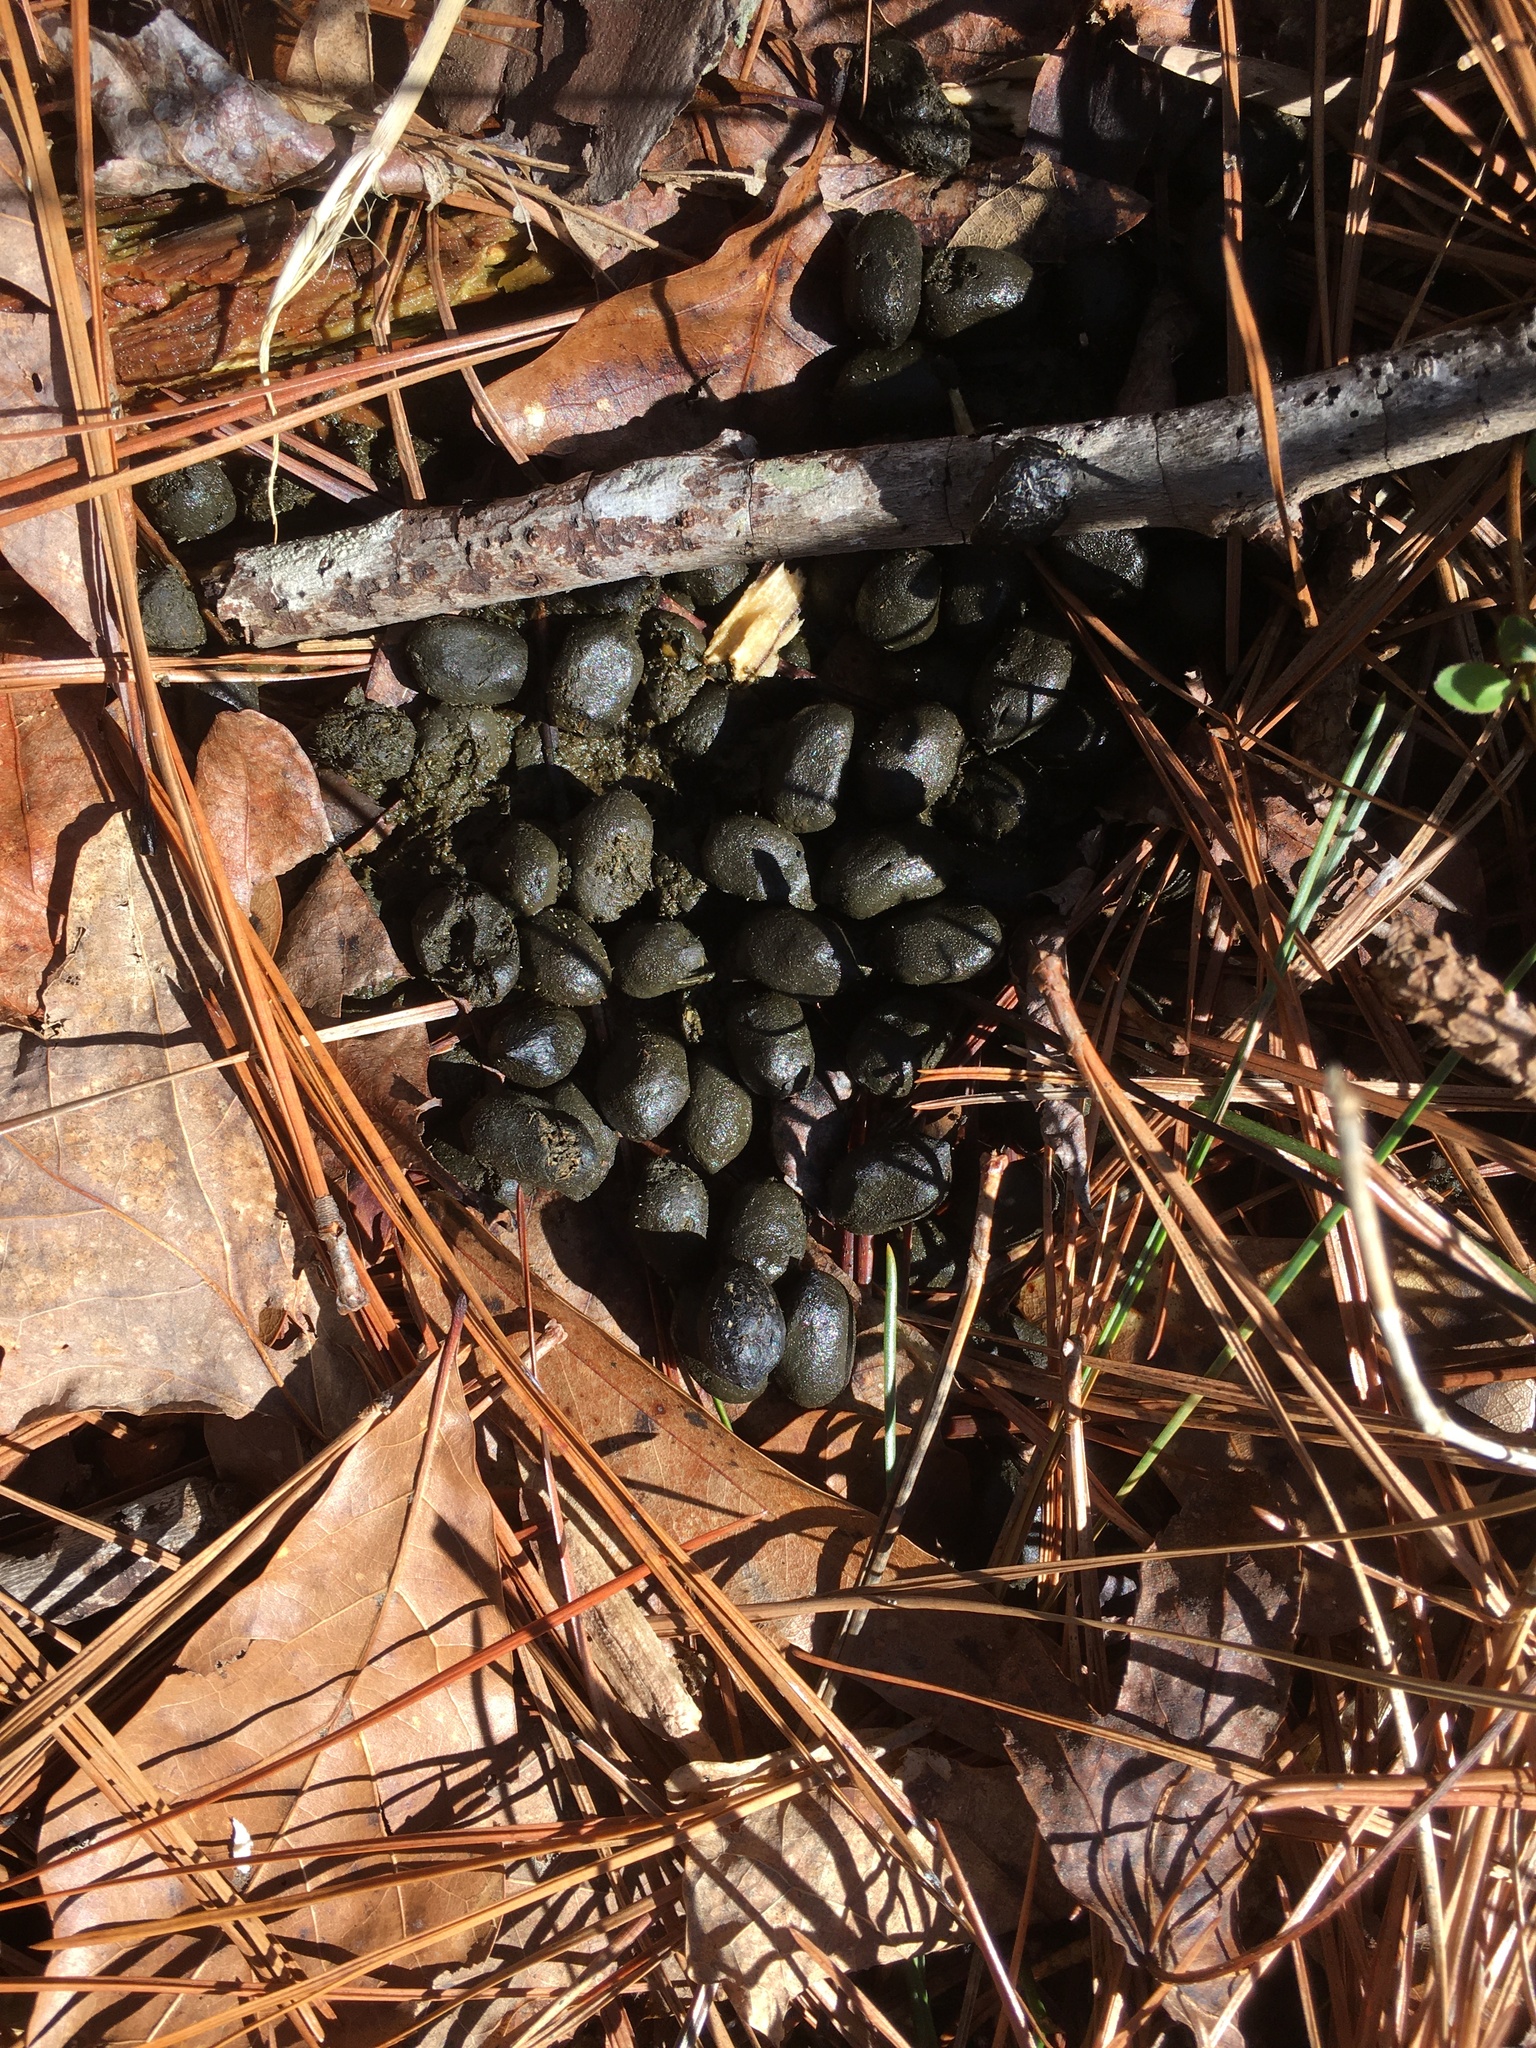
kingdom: Animalia
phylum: Chordata
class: Mammalia
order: Artiodactyla
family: Cervidae
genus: Odocoileus
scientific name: Odocoileus virginianus
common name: White-tailed deer
